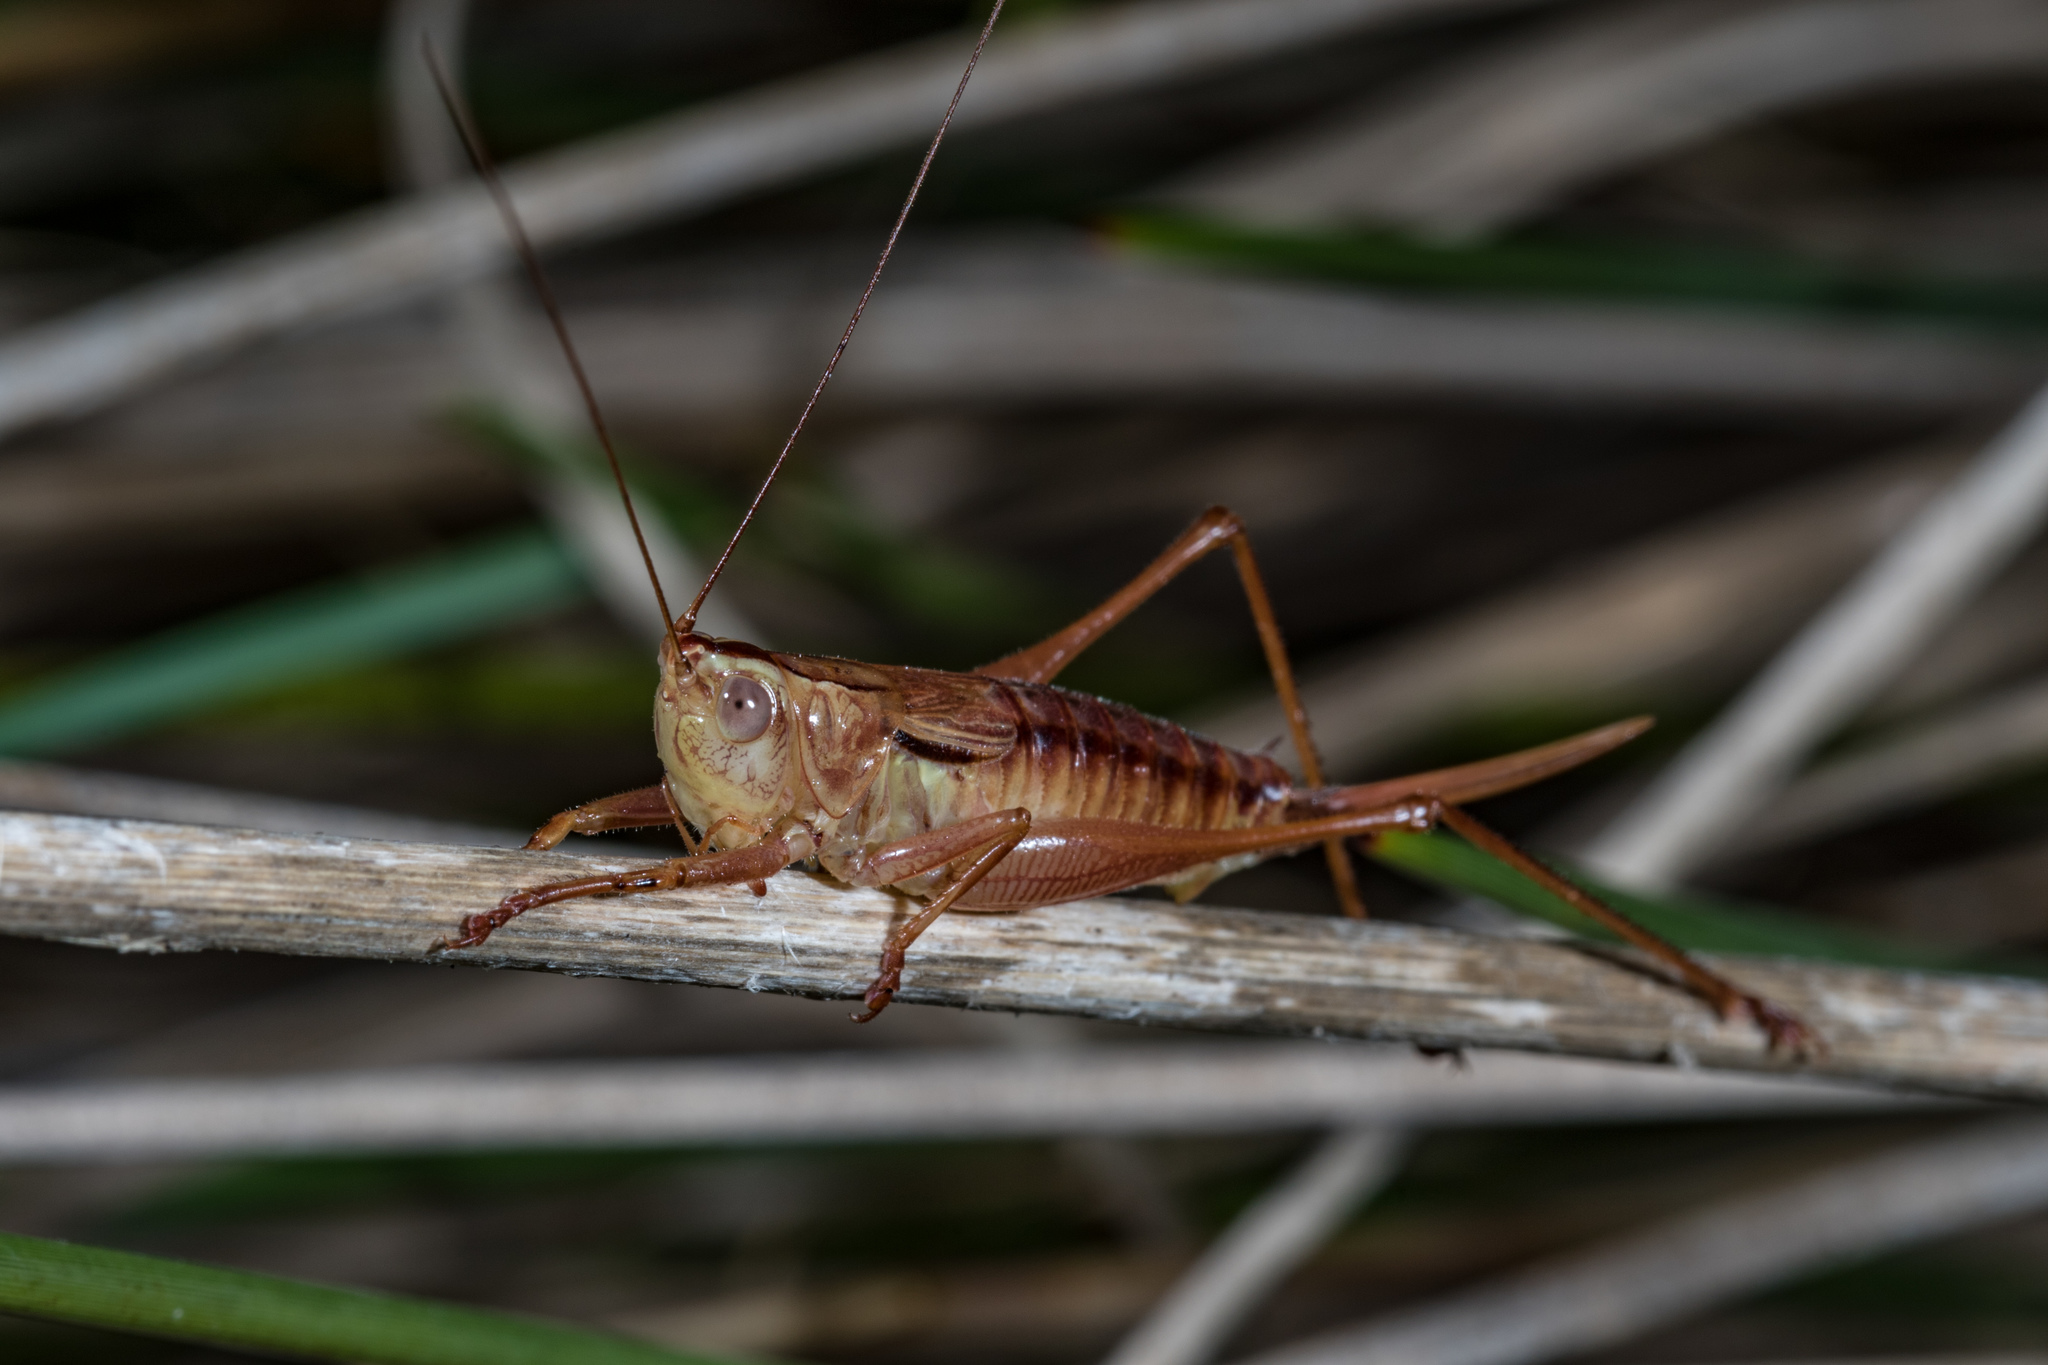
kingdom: Animalia
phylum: Arthropoda
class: Insecta
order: Orthoptera
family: Tettigoniidae
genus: Conocephalus
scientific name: Conocephalus semivittatus
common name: Blackish meadow katydid
